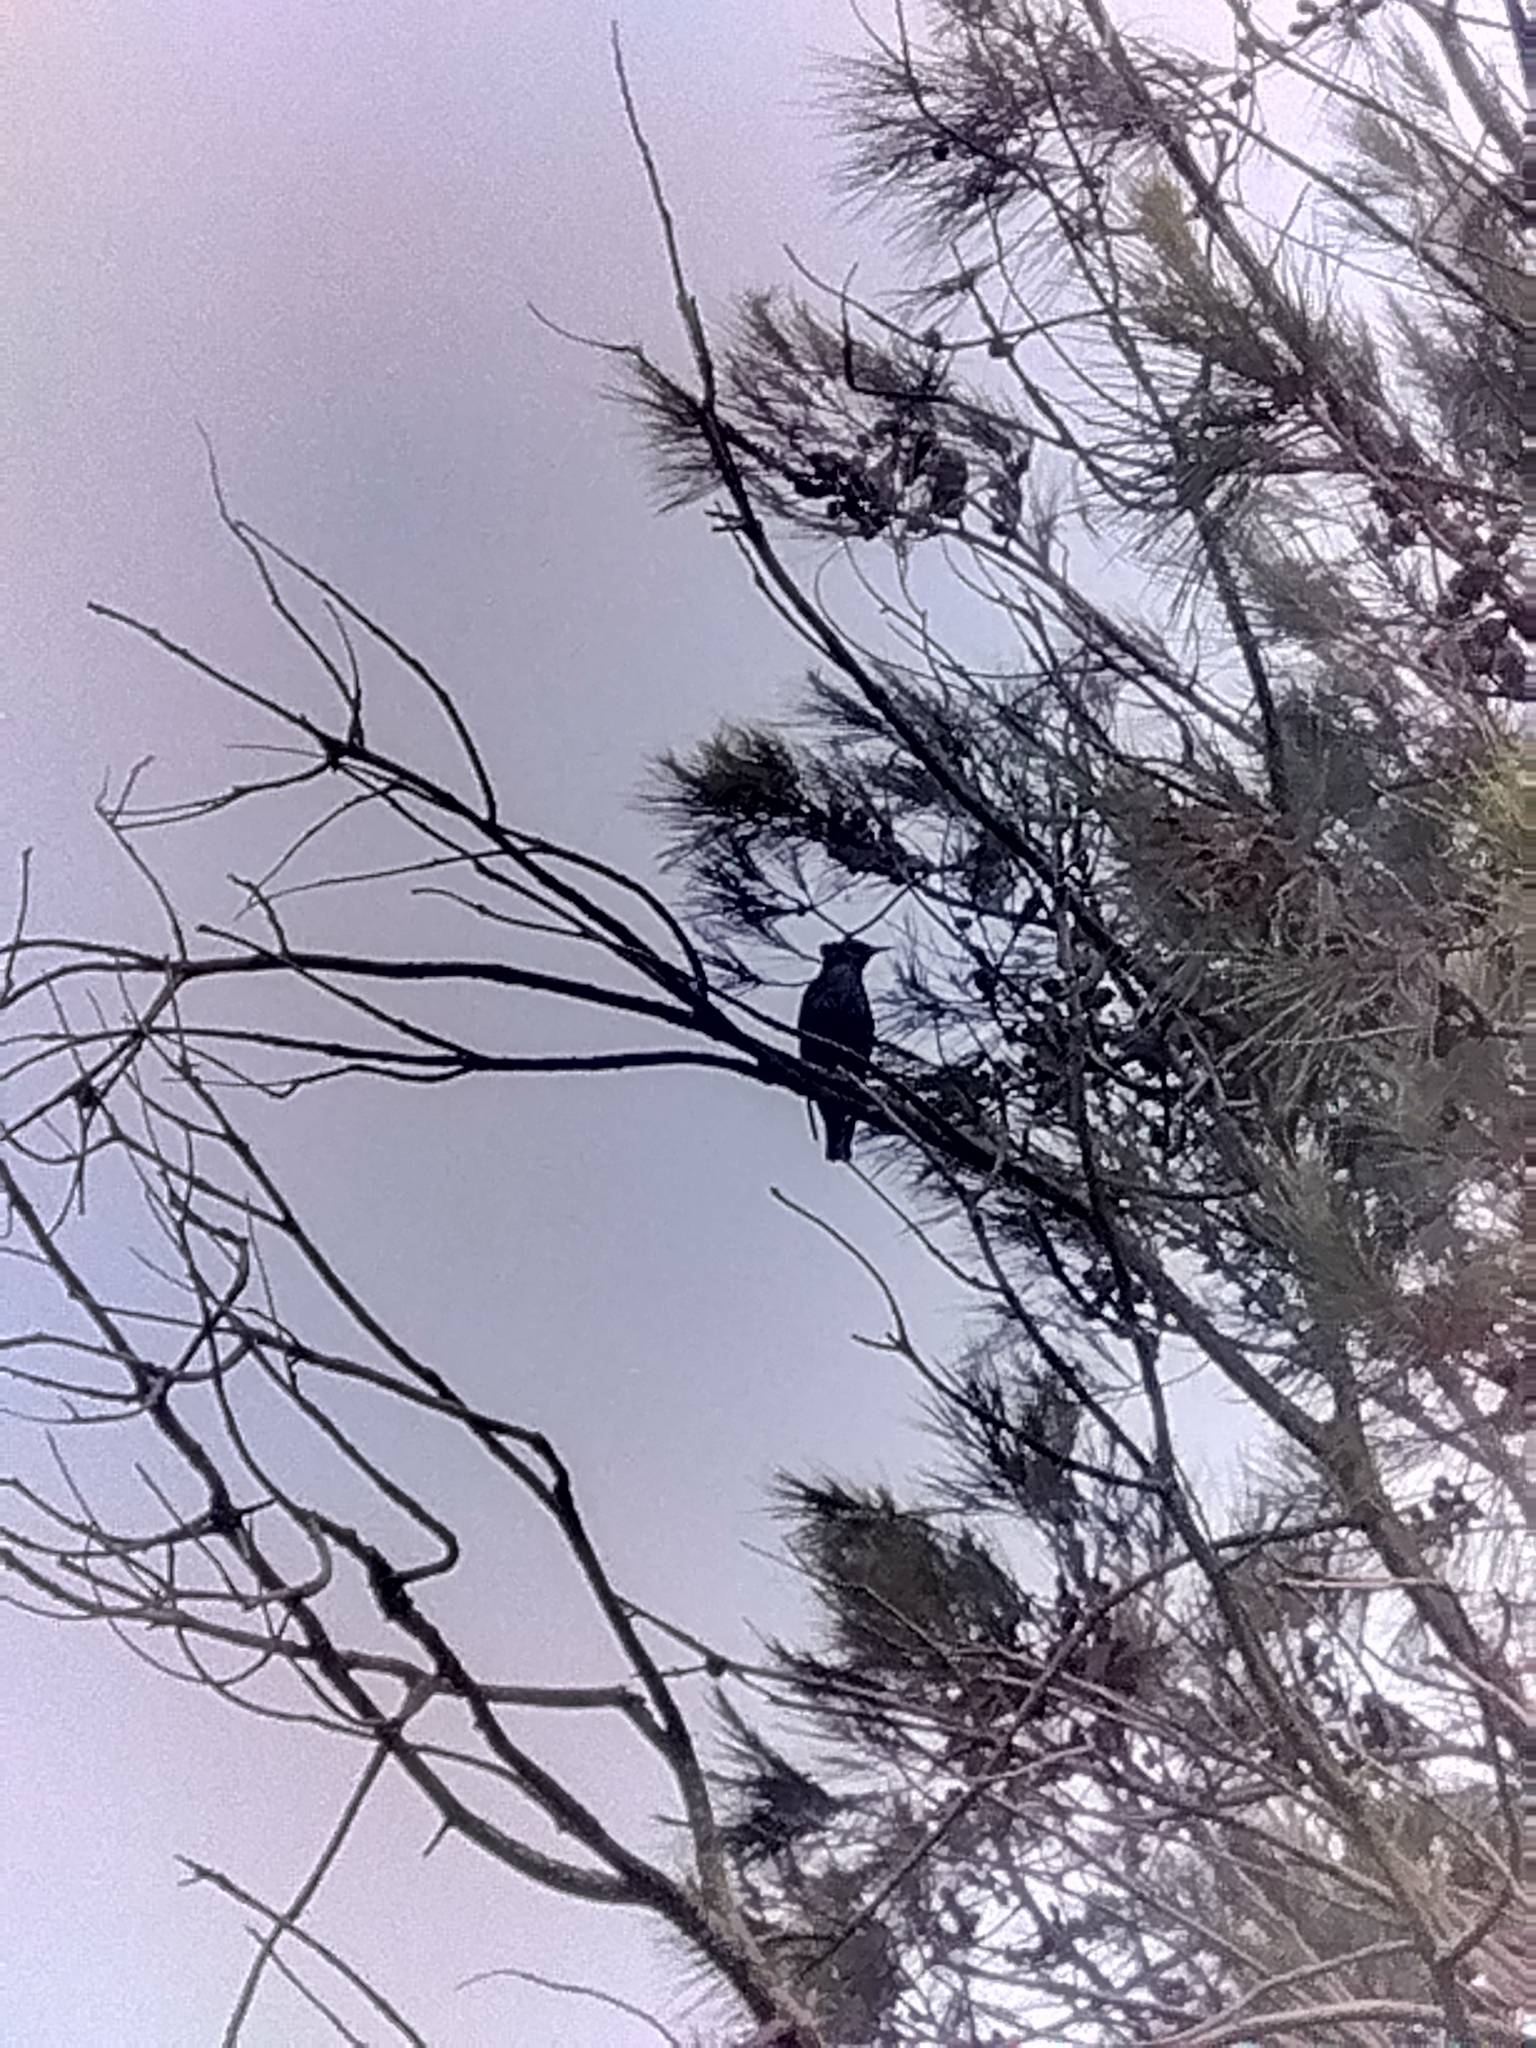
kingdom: Animalia
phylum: Chordata
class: Aves
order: Passeriformes
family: Sturnidae
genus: Sturnus
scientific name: Sturnus vulgaris
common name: Common starling
